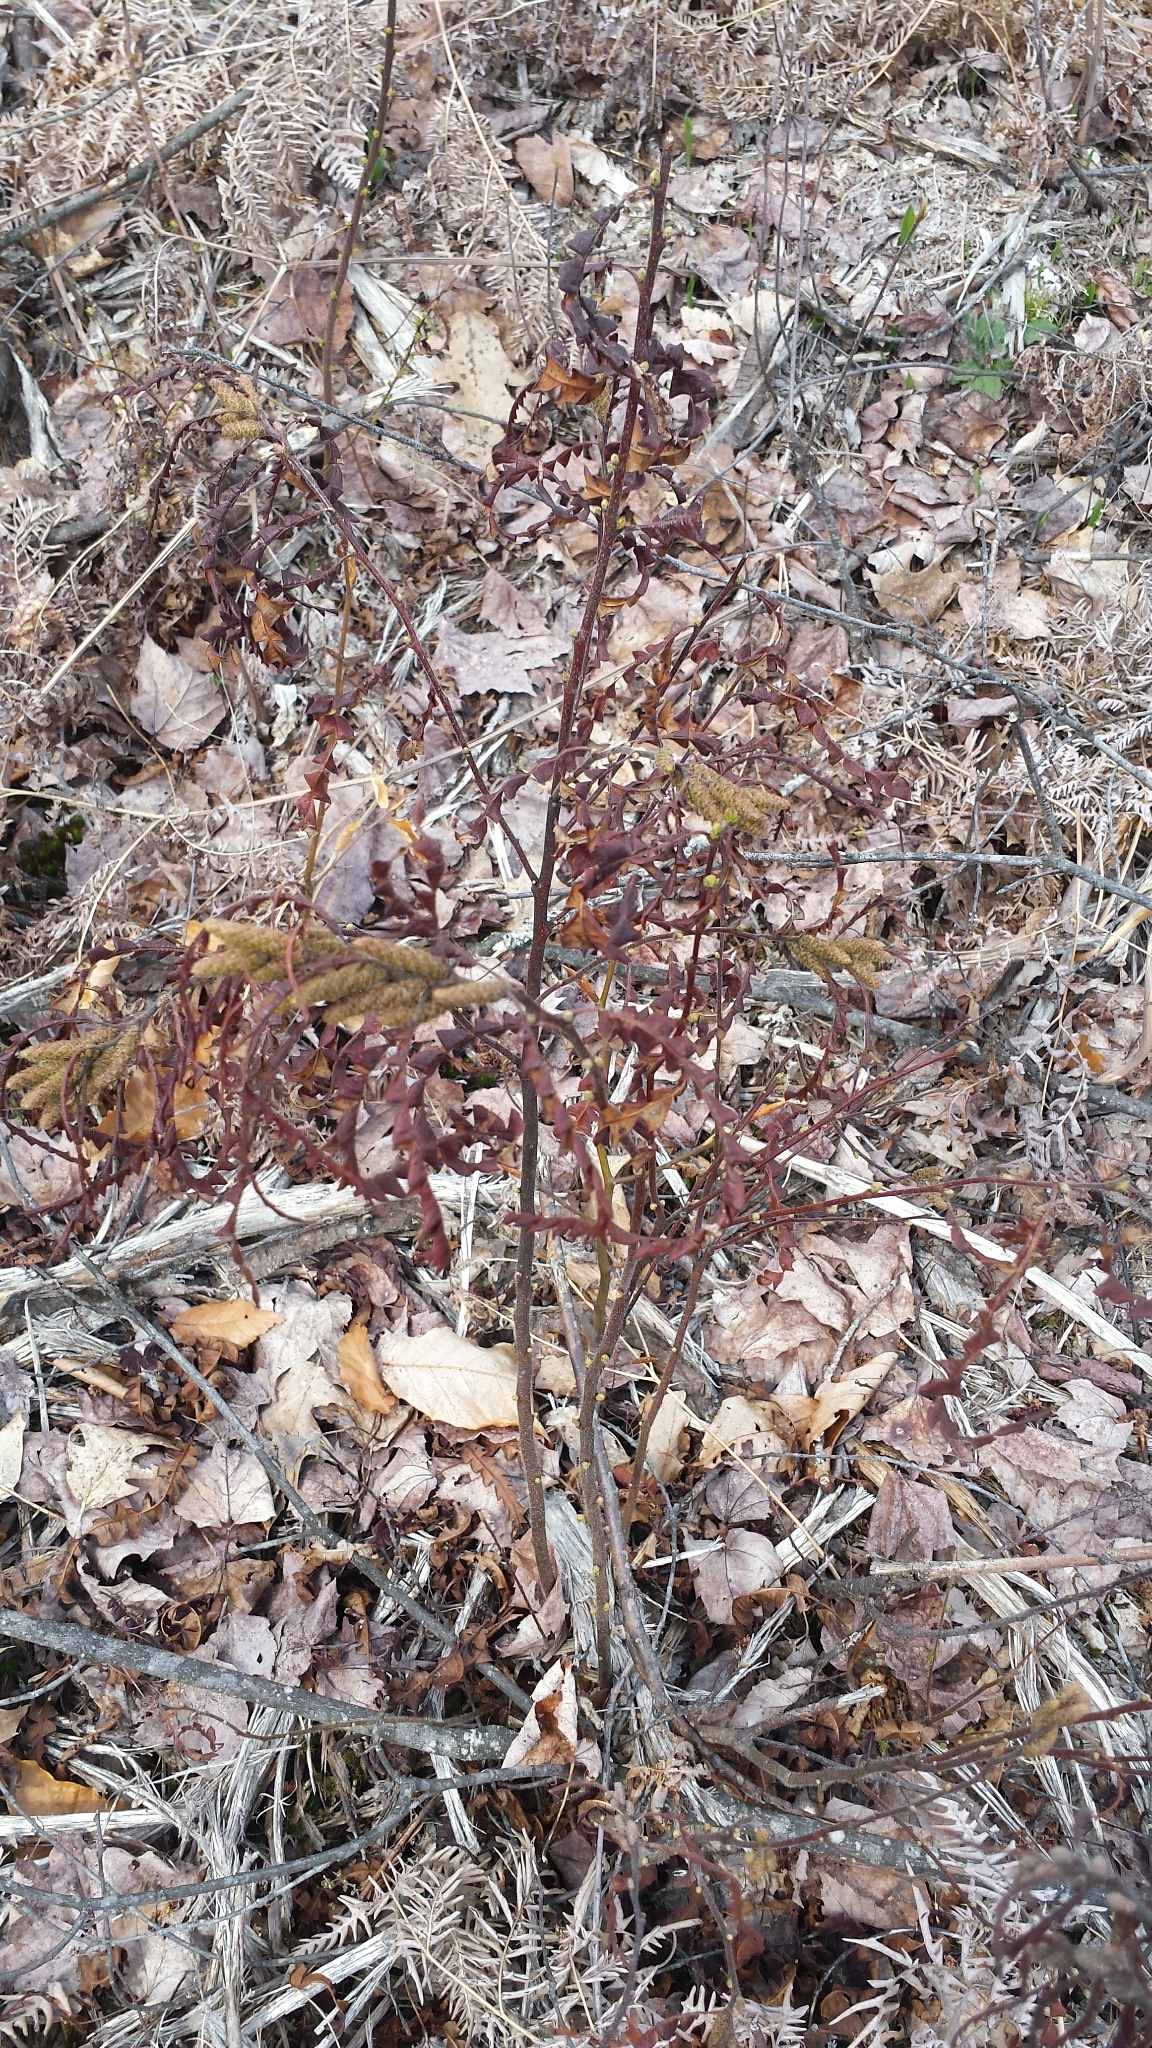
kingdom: Plantae
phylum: Tracheophyta
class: Magnoliopsida
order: Fagales
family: Myricaceae
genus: Comptonia
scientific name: Comptonia peregrina
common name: Sweet-fern
